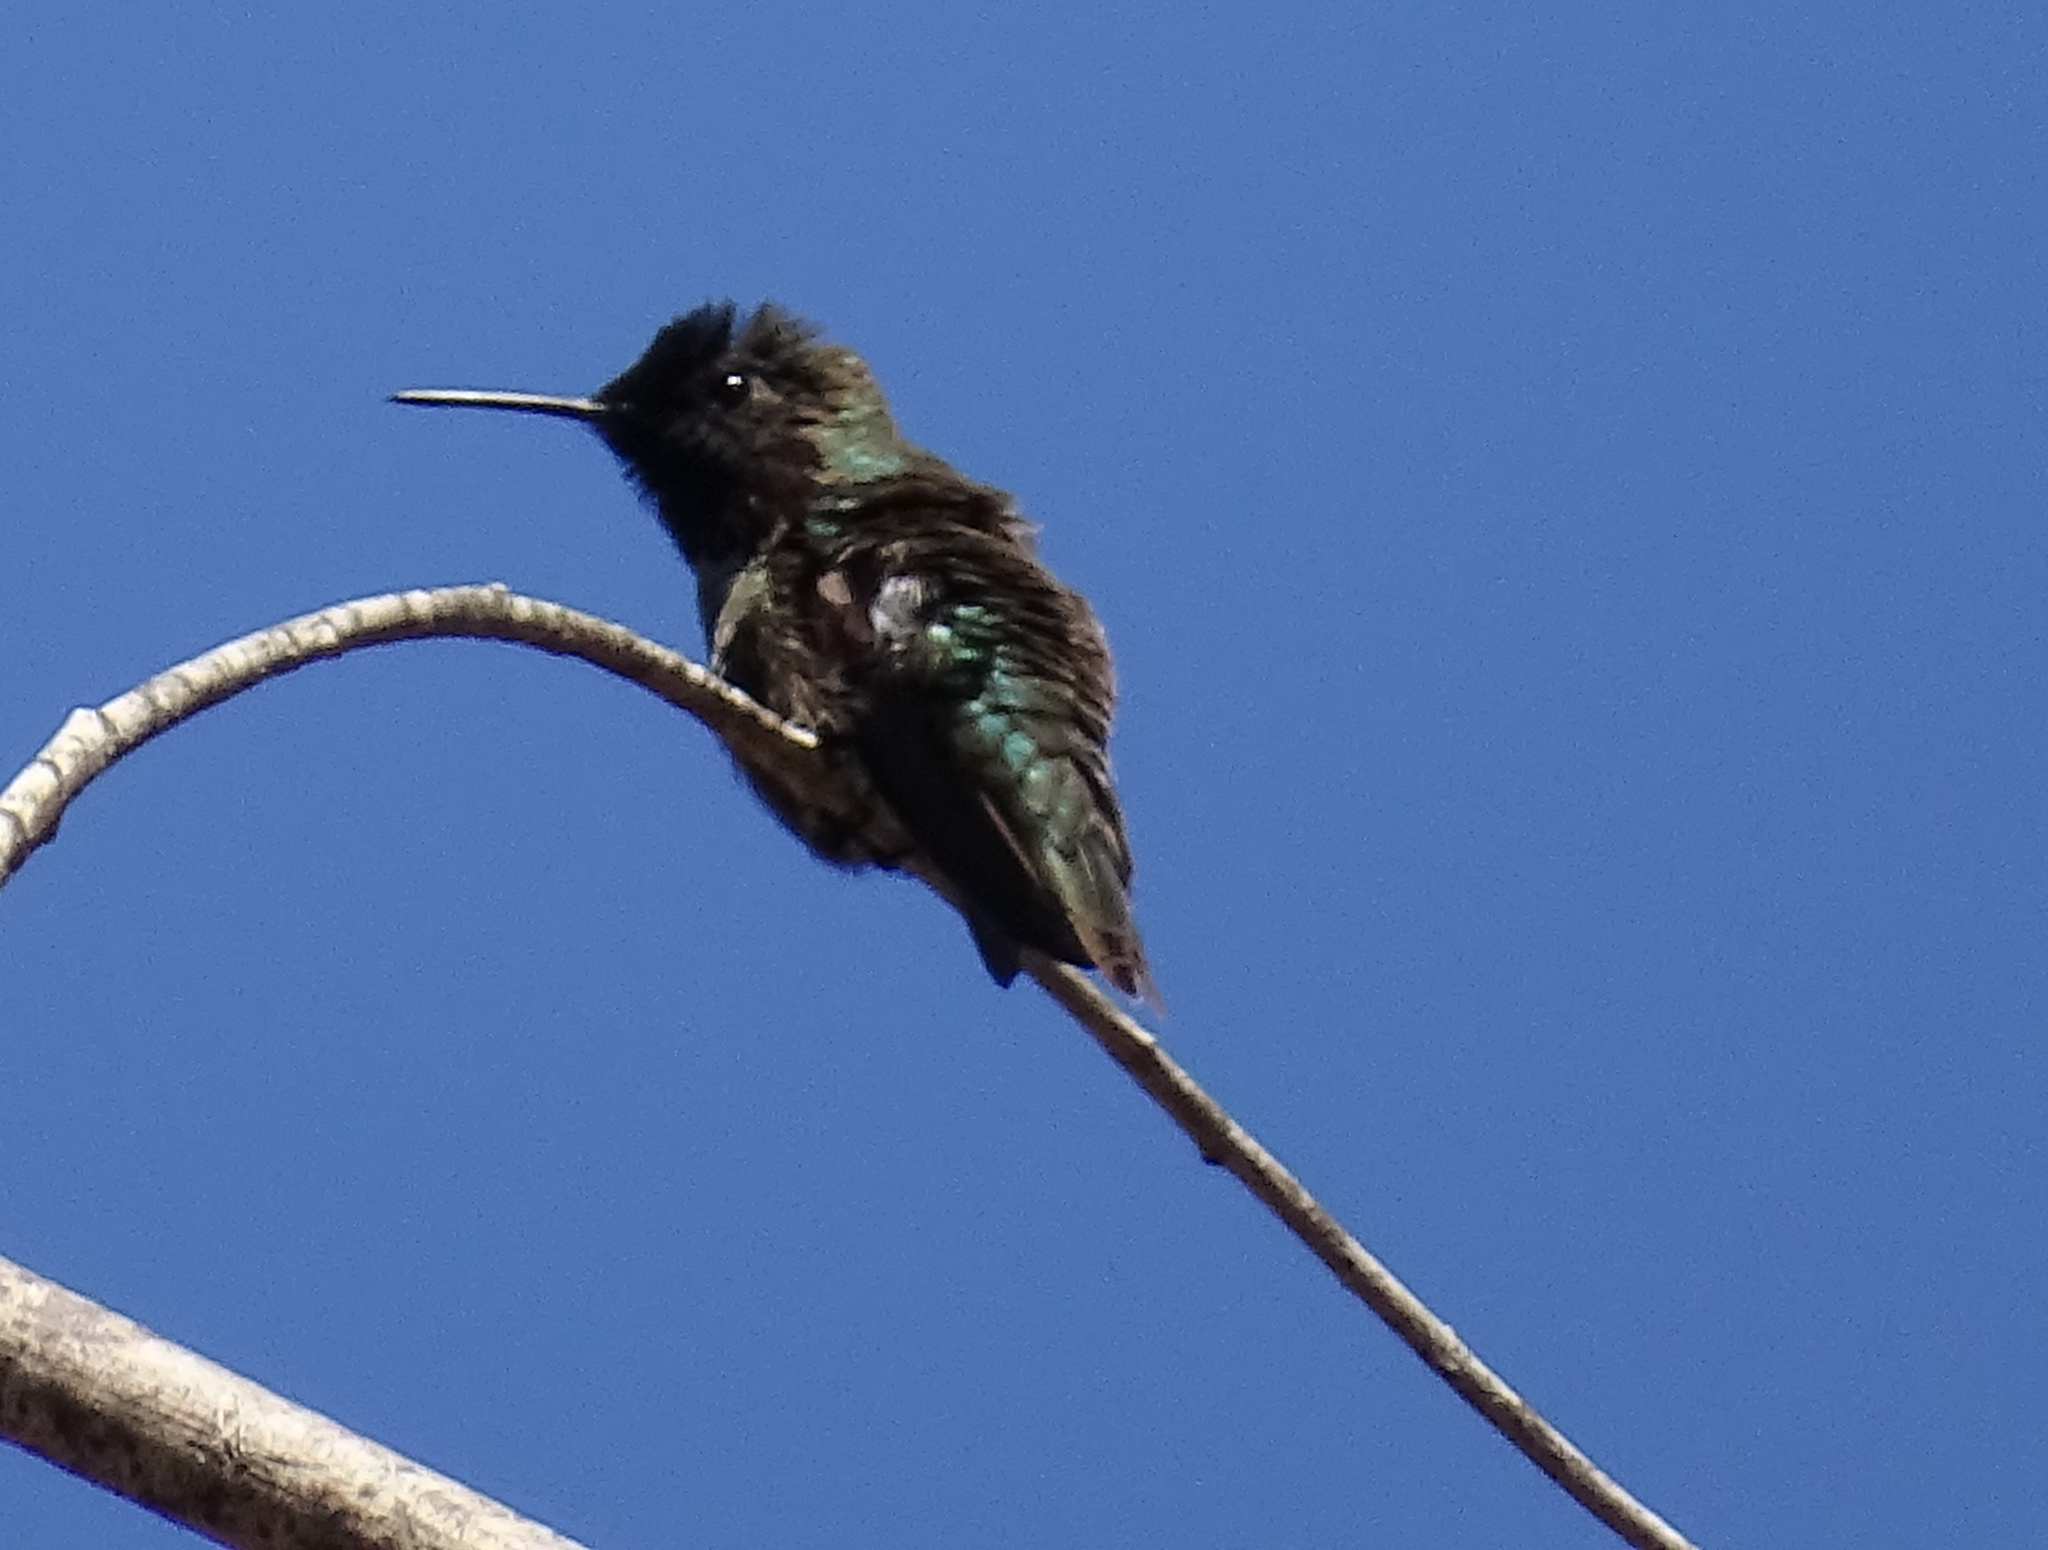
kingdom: Animalia
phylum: Chordata
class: Aves
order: Apodiformes
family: Trochilidae
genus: Calypte
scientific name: Calypte anna
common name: Anna's hummingbird
